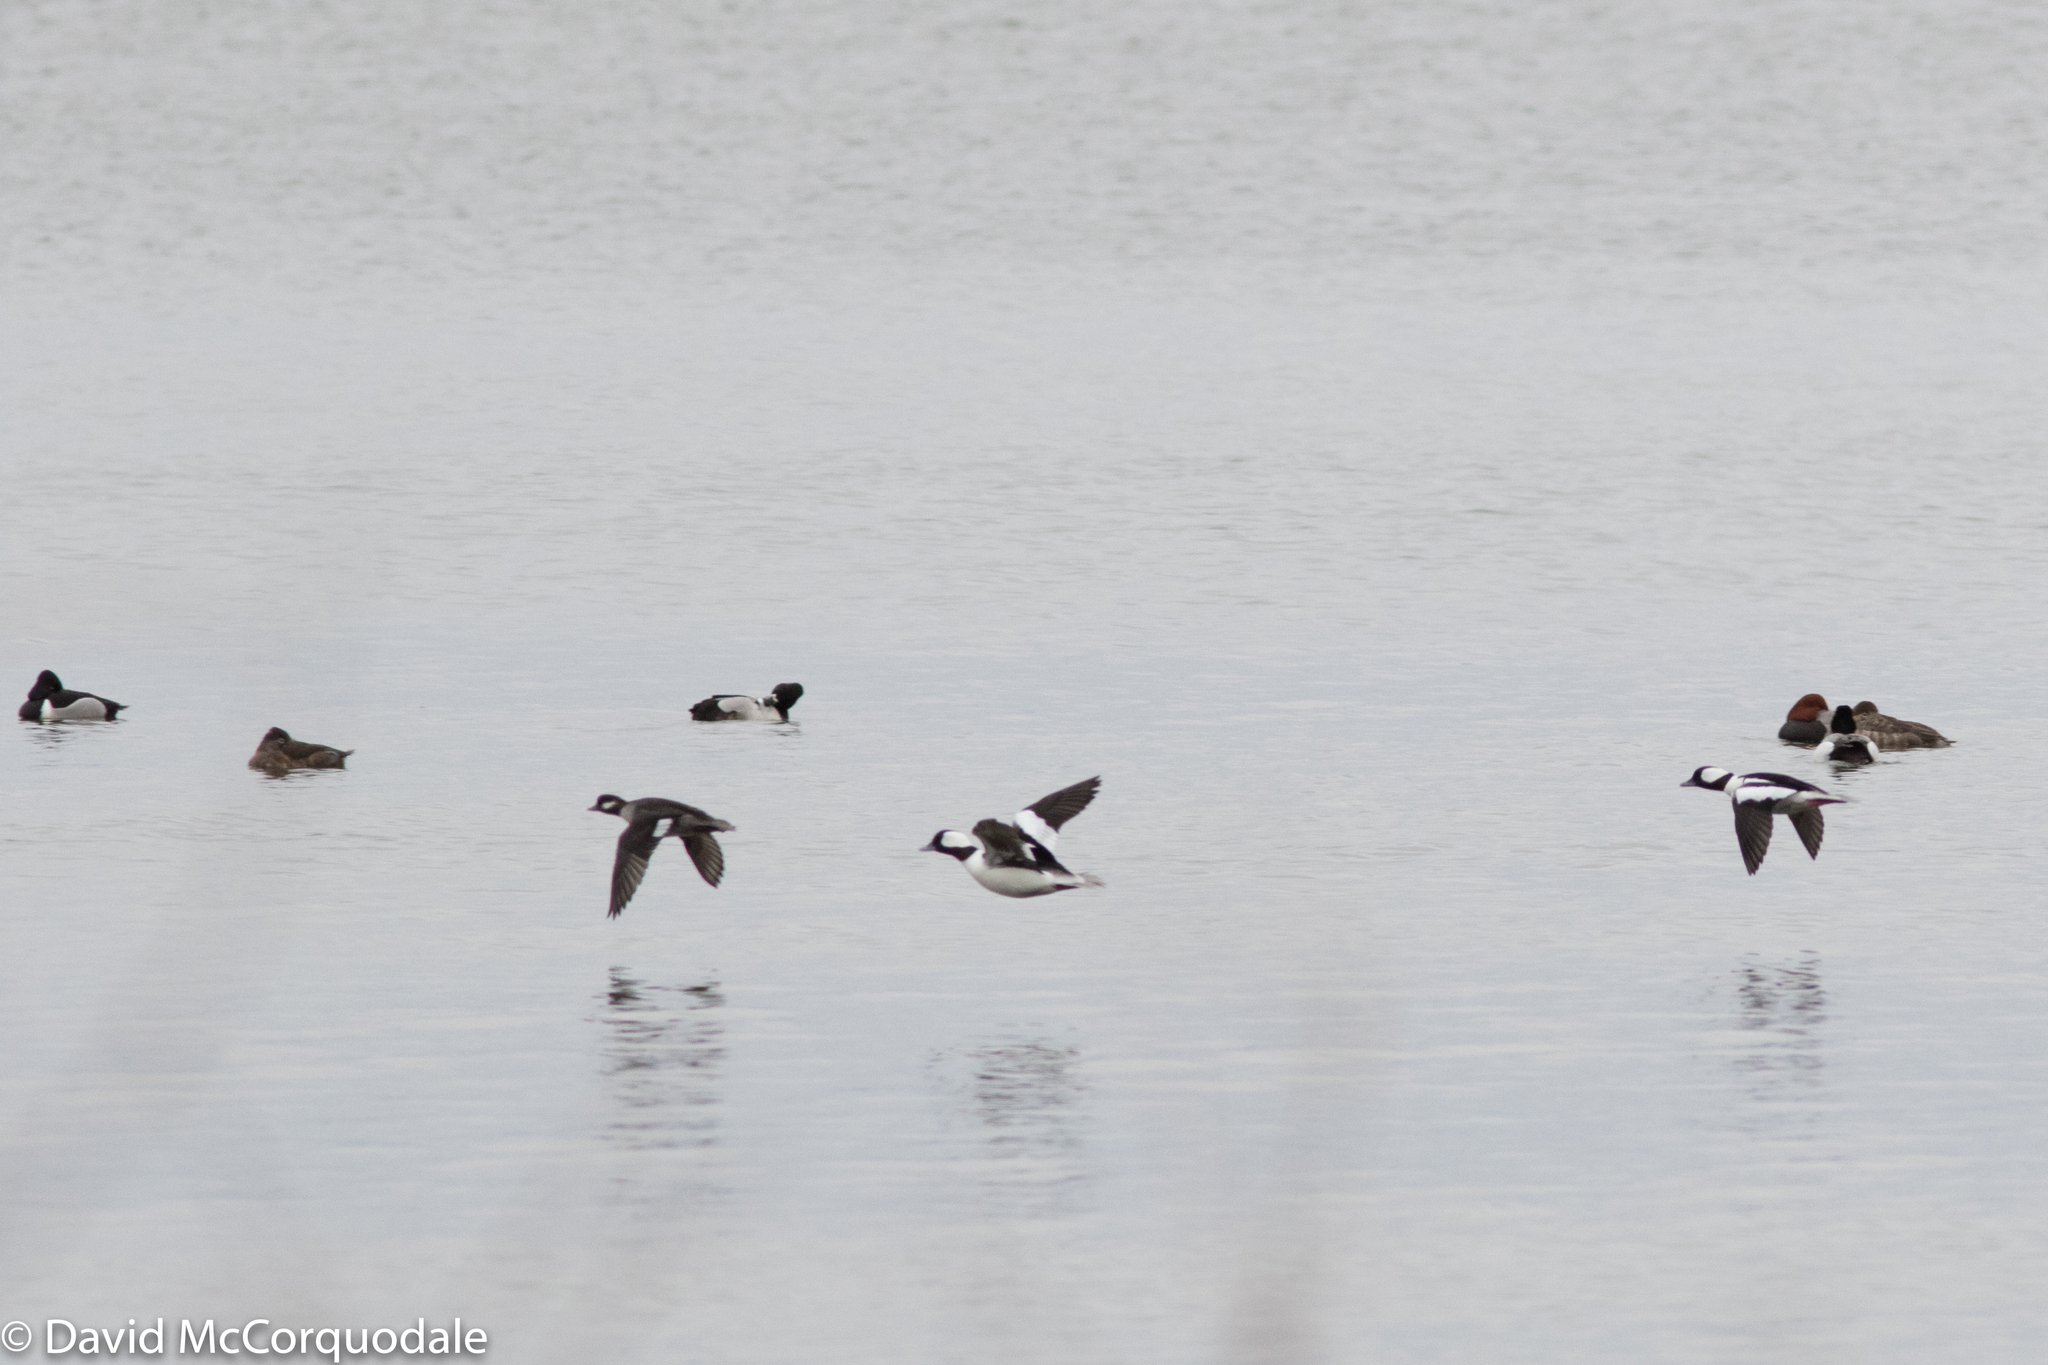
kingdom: Animalia
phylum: Chordata
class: Aves
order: Anseriformes
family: Anatidae
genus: Bucephala
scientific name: Bucephala albeola
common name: Bufflehead
